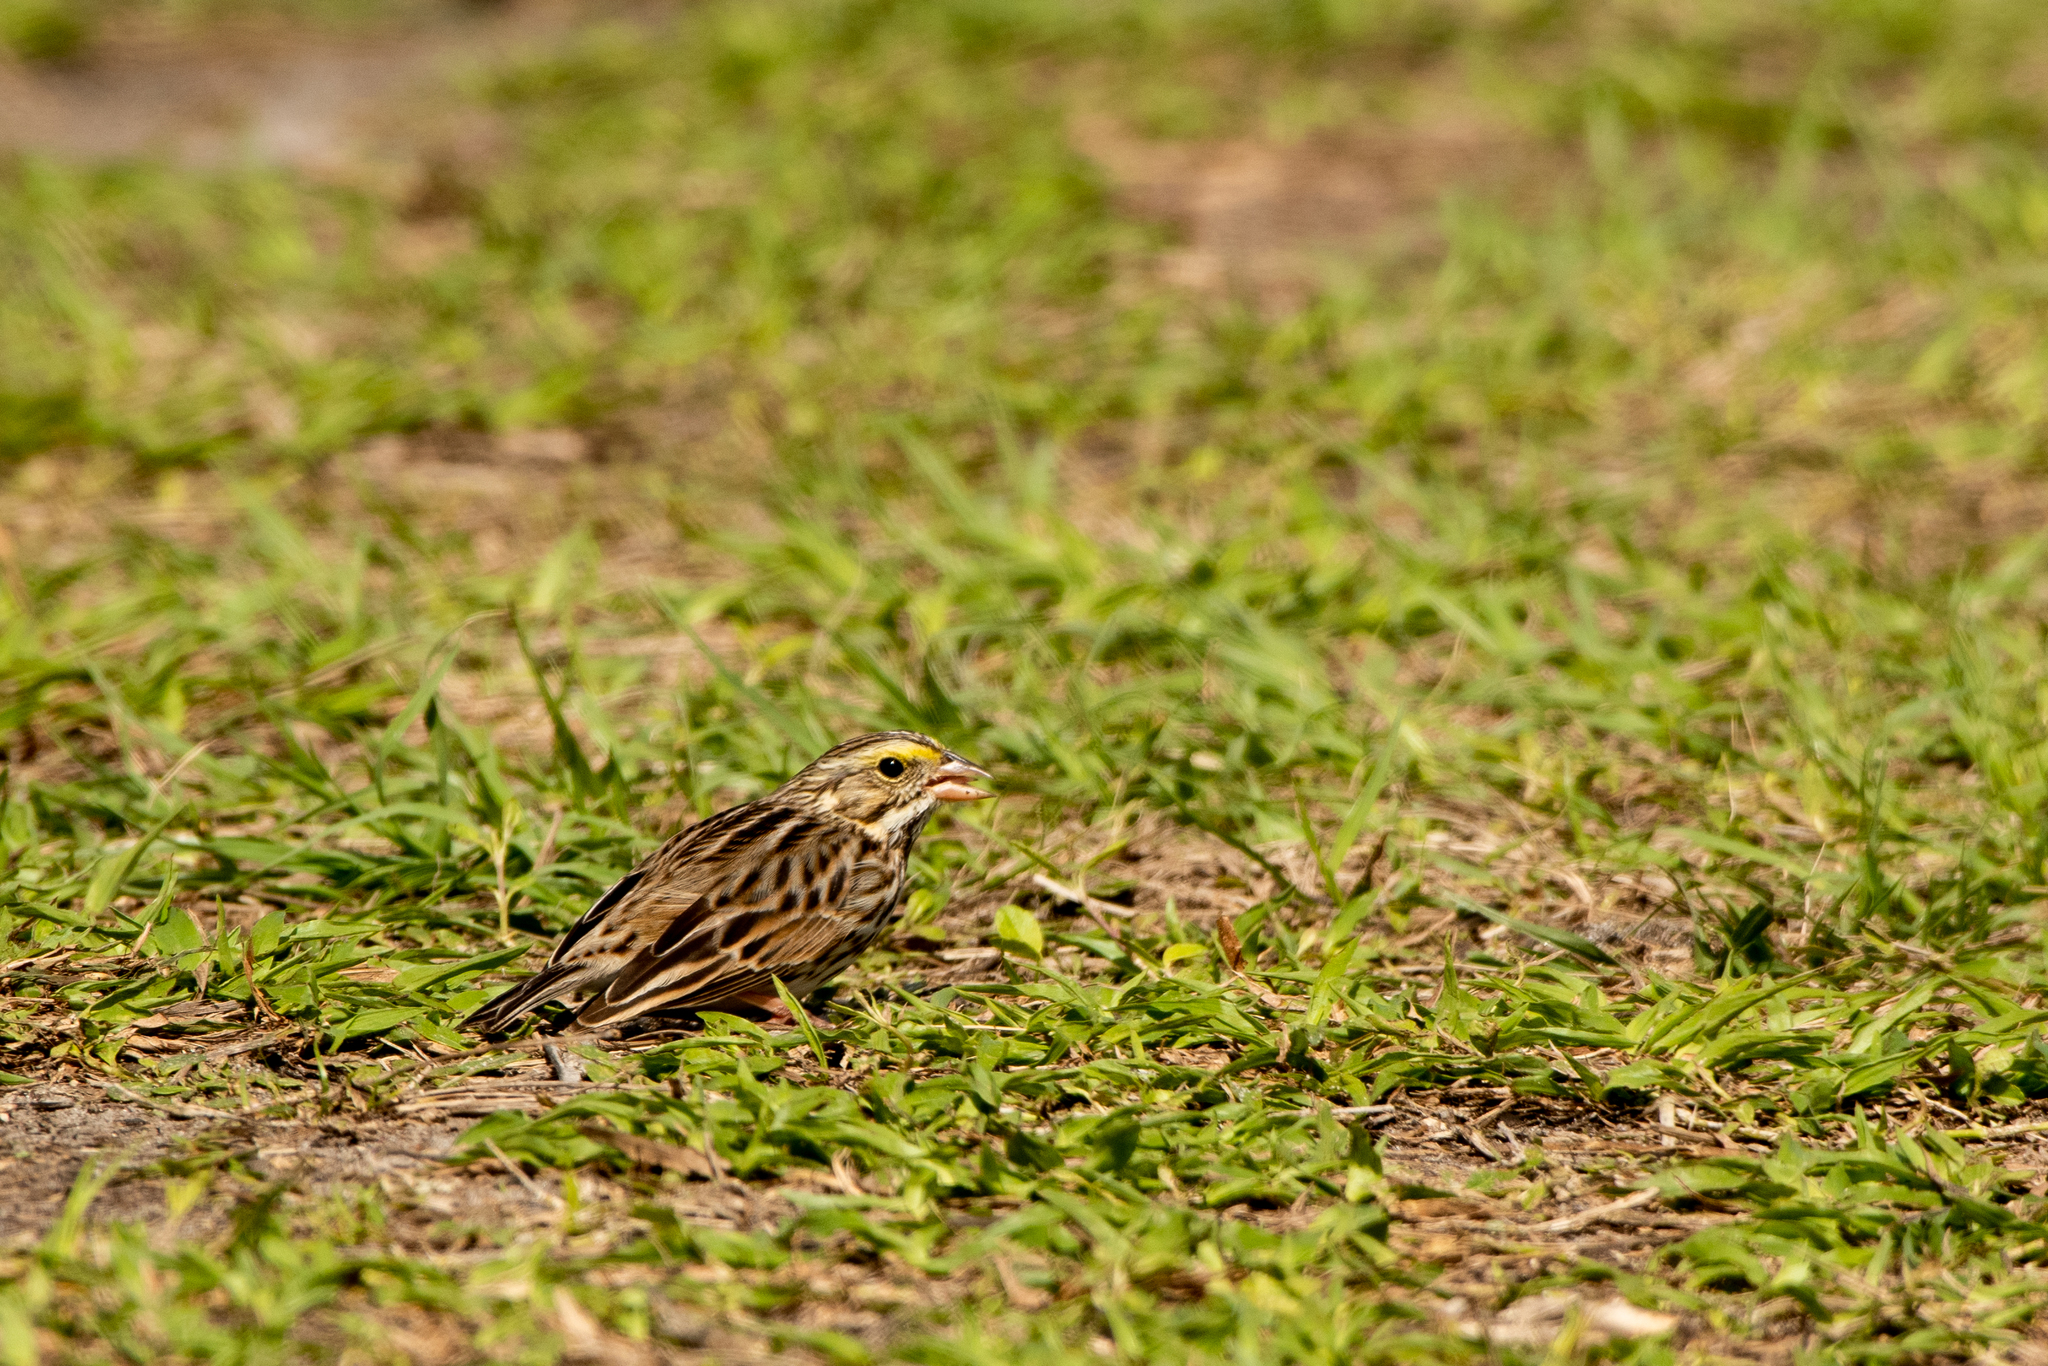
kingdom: Animalia
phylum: Chordata
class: Aves
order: Passeriformes
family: Passerellidae
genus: Passerculus
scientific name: Passerculus sandwichensis
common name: Savannah sparrow
